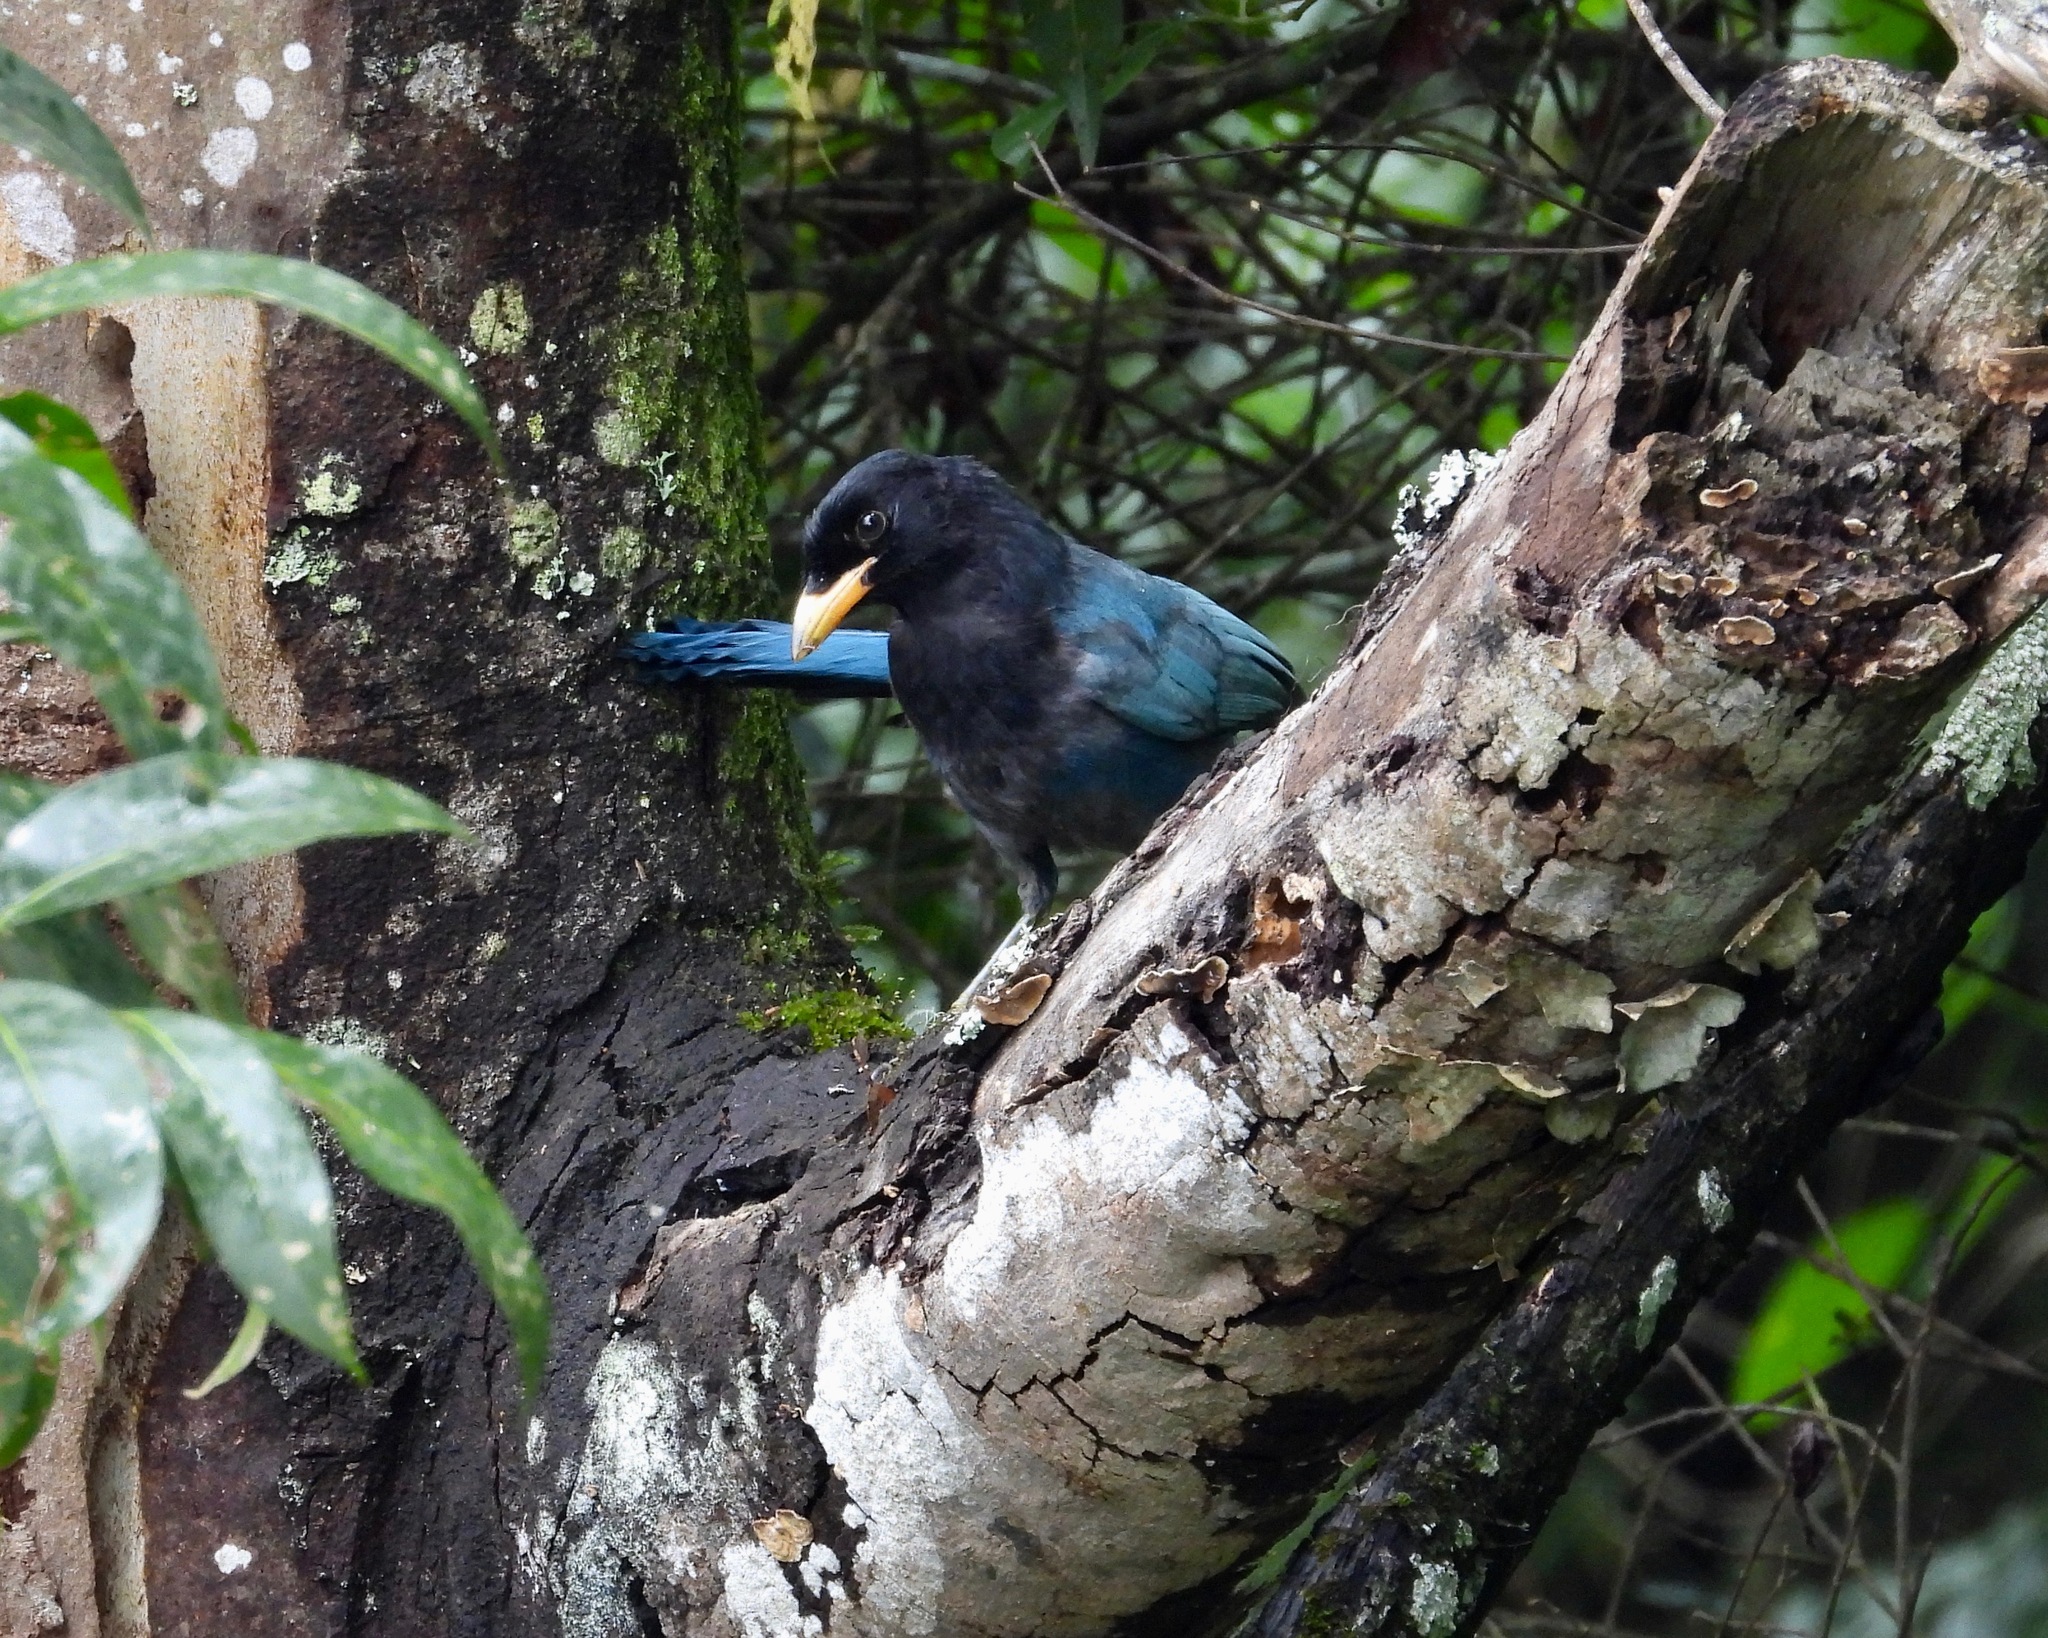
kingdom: Animalia
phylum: Chordata
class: Aves
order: Passeriformes
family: Corvidae
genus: Cyanocorax
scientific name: Cyanocorax melanocyaneus
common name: Bushy-crested jay
